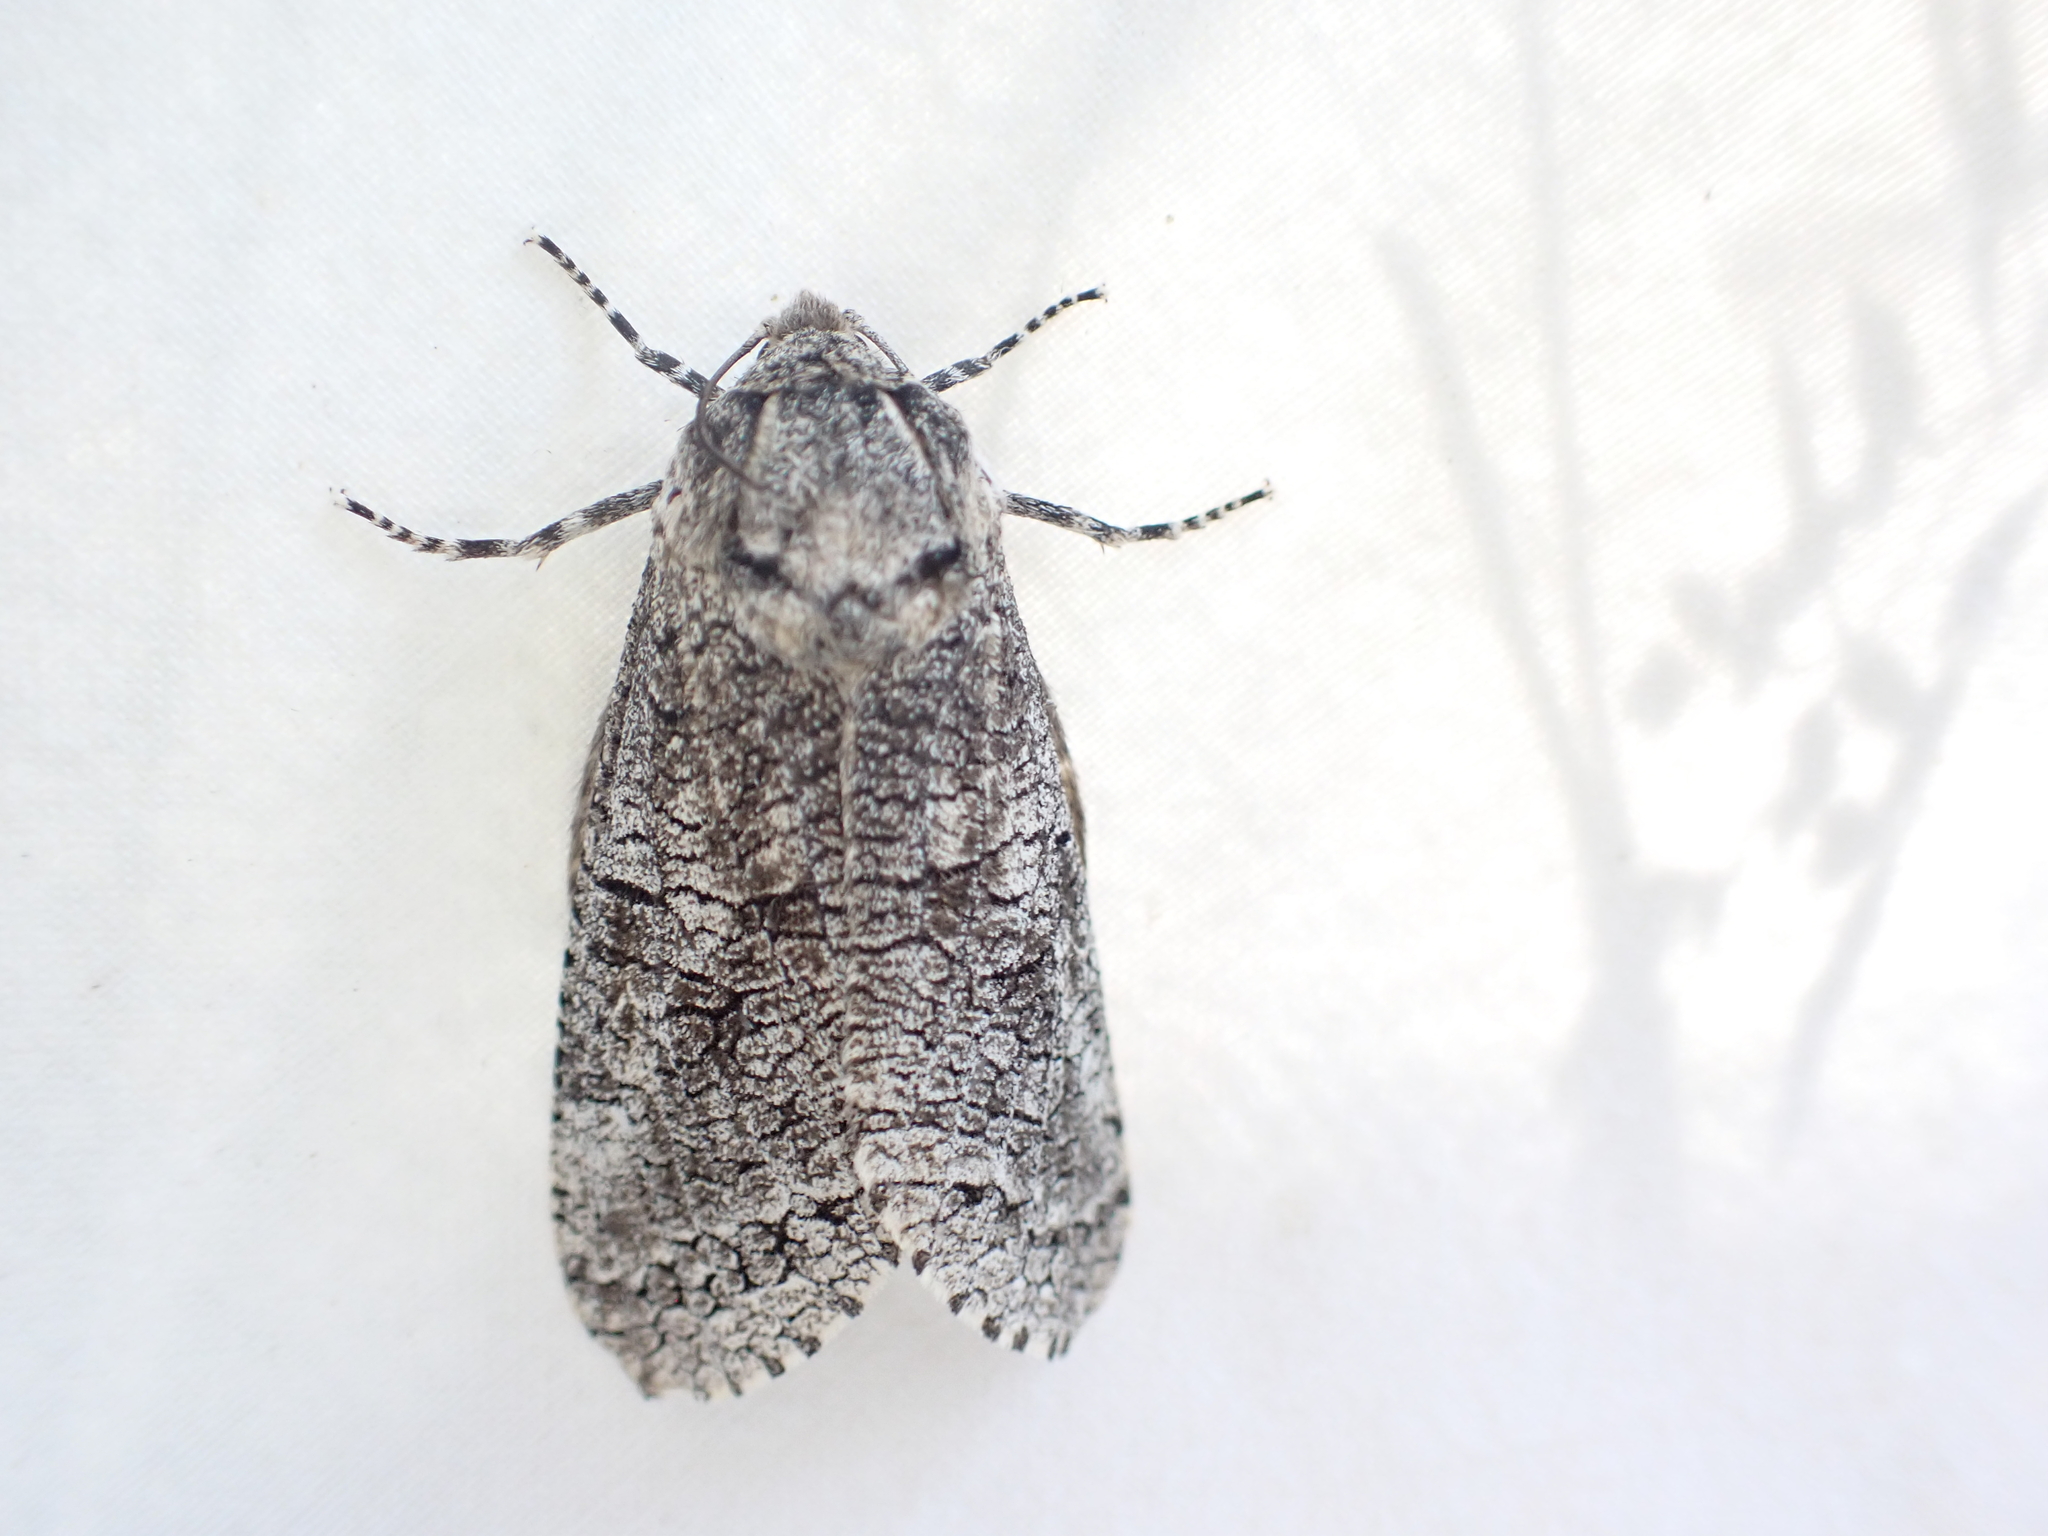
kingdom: Animalia
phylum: Arthropoda
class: Insecta
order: Lepidoptera
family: Cossidae
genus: Acossus
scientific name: Acossus populi
